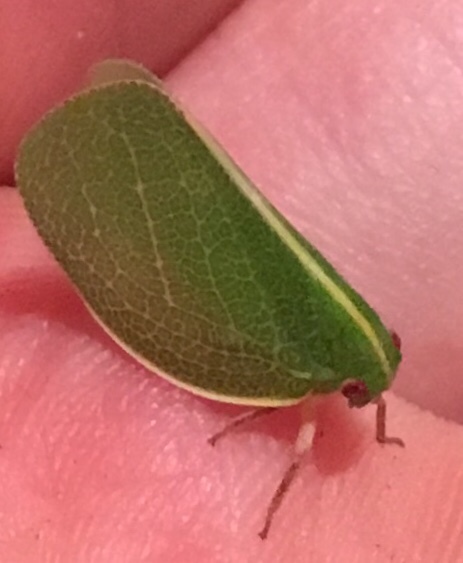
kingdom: Animalia
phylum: Arthropoda
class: Insecta
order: Hemiptera
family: Acanaloniidae
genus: Acanalonia
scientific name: Acanalonia servillei
